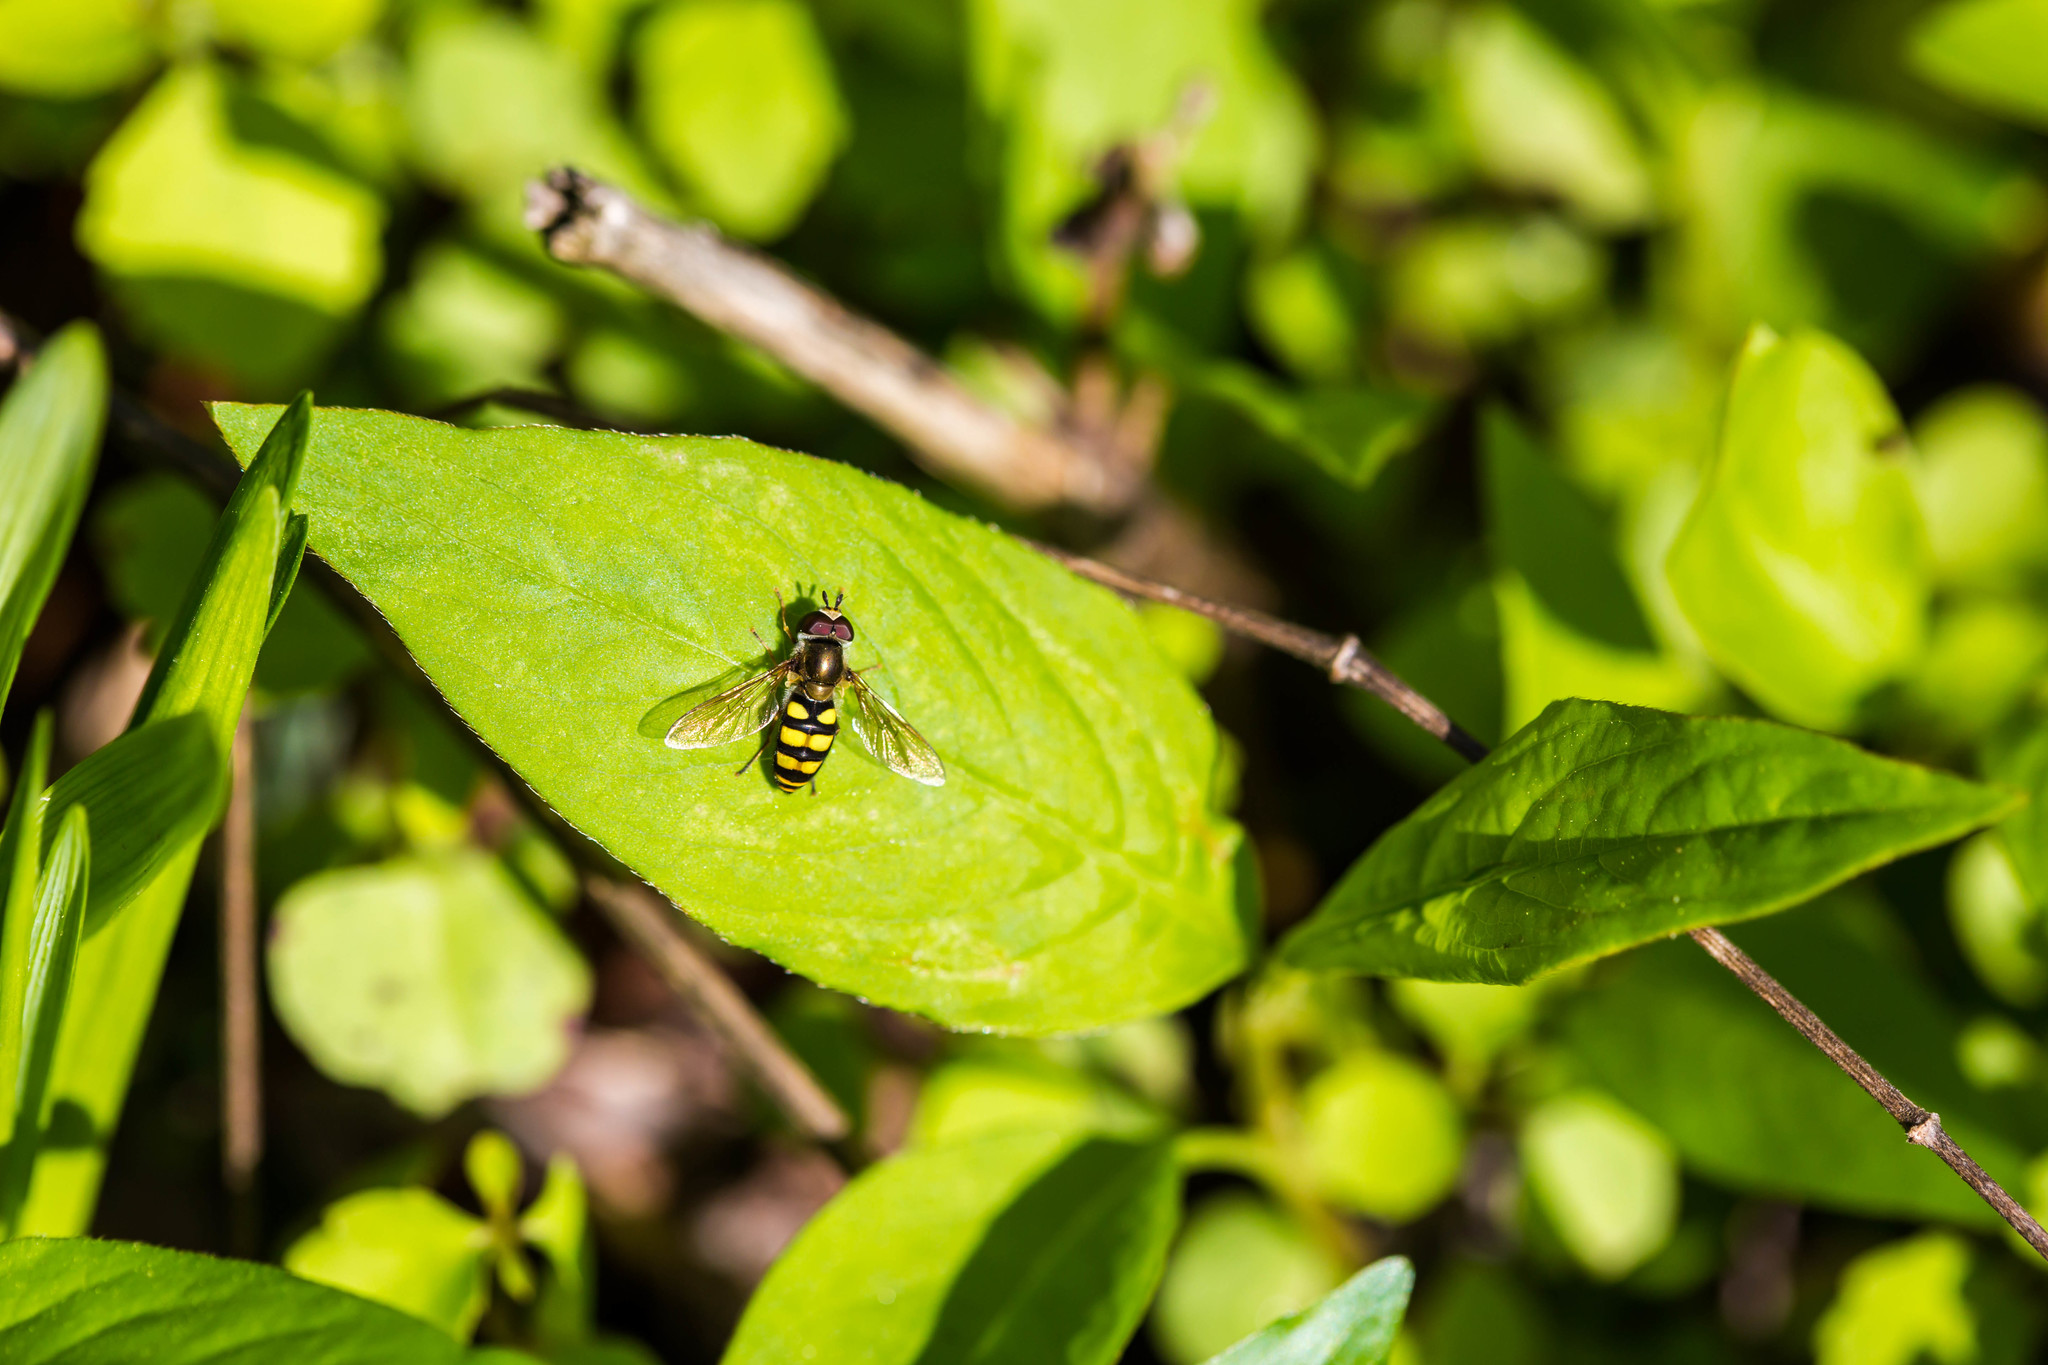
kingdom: Animalia
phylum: Arthropoda
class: Insecta
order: Diptera
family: Syrphidae
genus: Eupeodes
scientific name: Eupeodes
